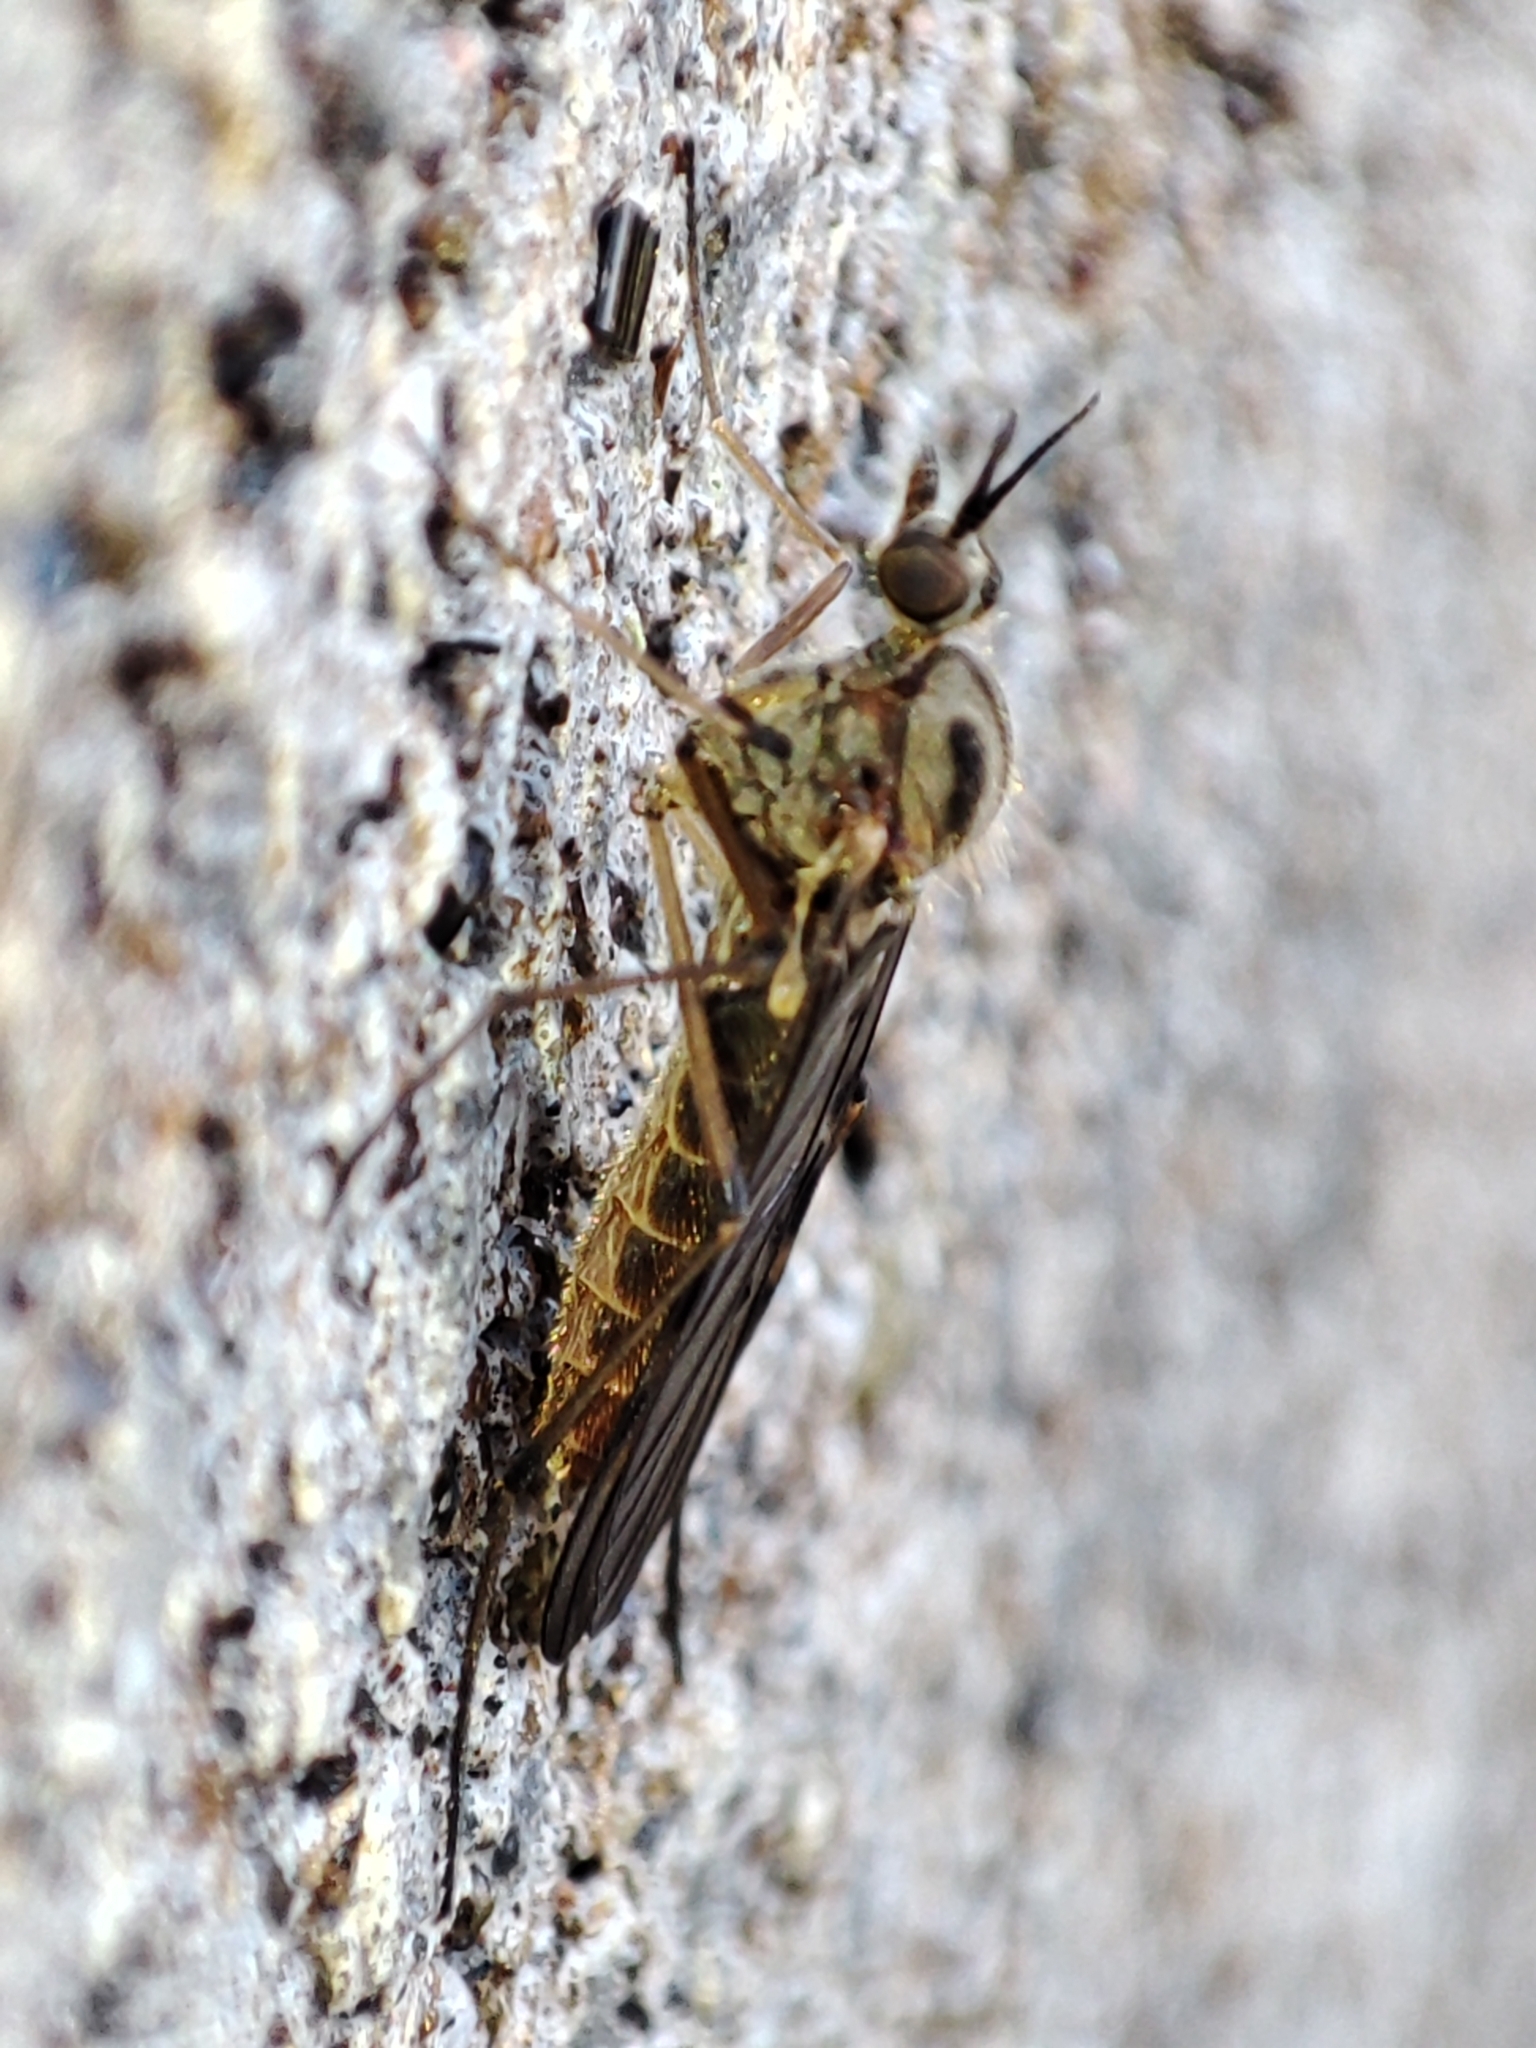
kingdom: Animalia
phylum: Arthropoda
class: Insecta
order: Diptera
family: Anisopodidae
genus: Sylvicola
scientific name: Sylvicola
